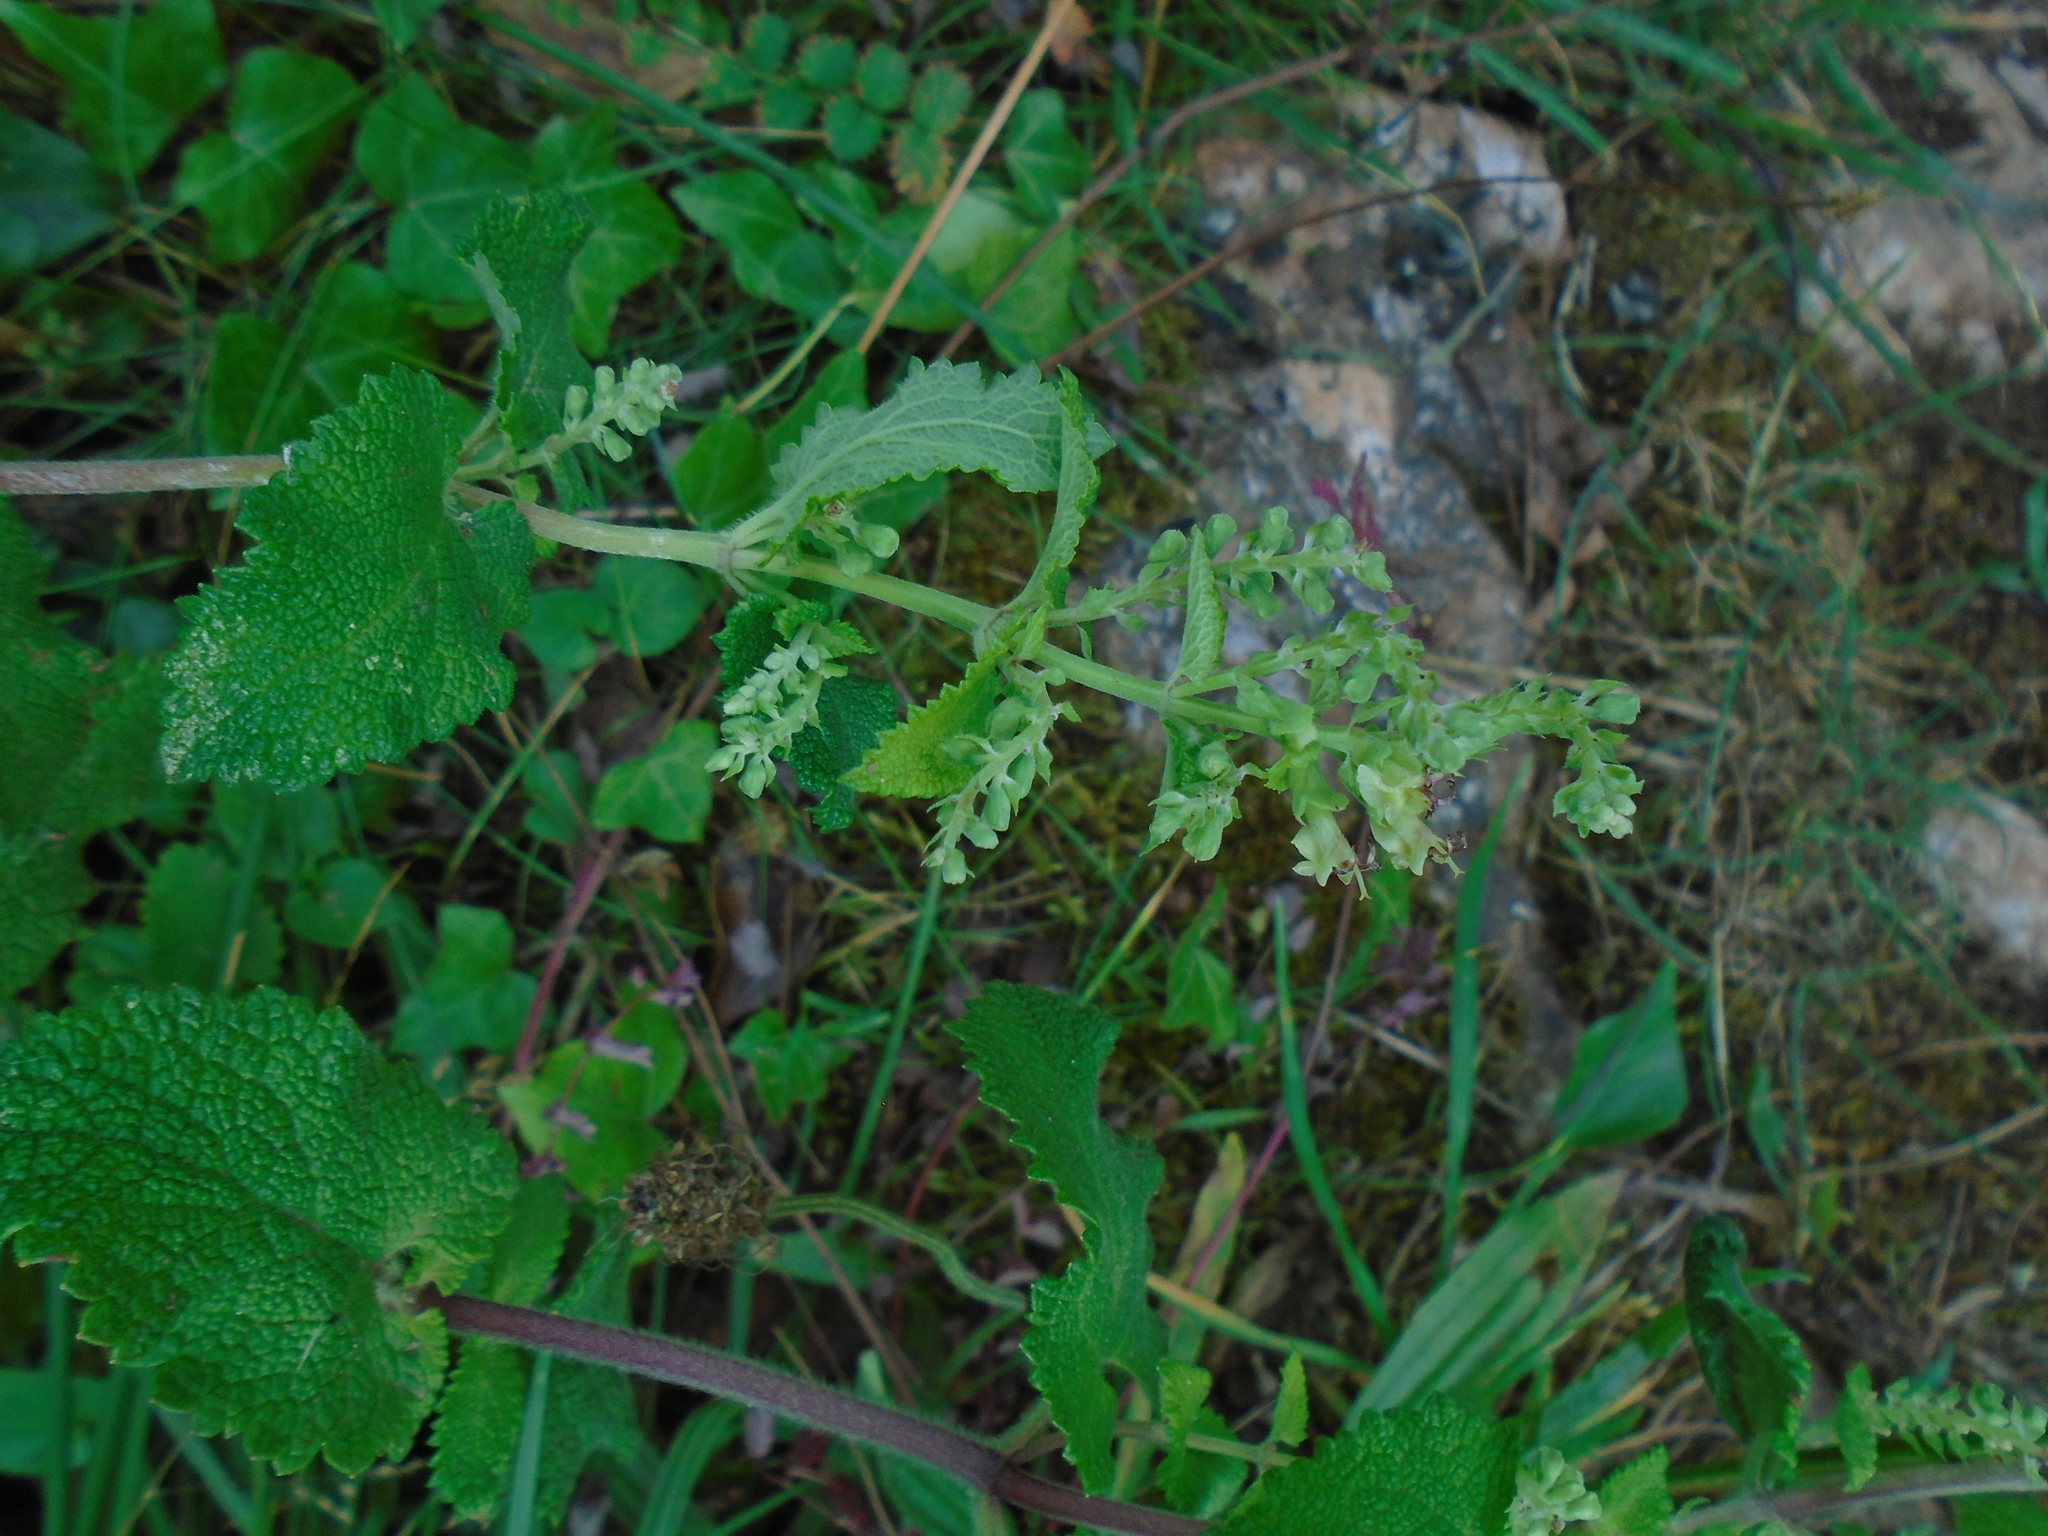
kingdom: Plantae
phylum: Tracheophyta
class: Magnoliopsida
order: Lamiales
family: Lamiaceae
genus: Teucrium
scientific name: Teucrium scorodonia
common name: Woodland germander
